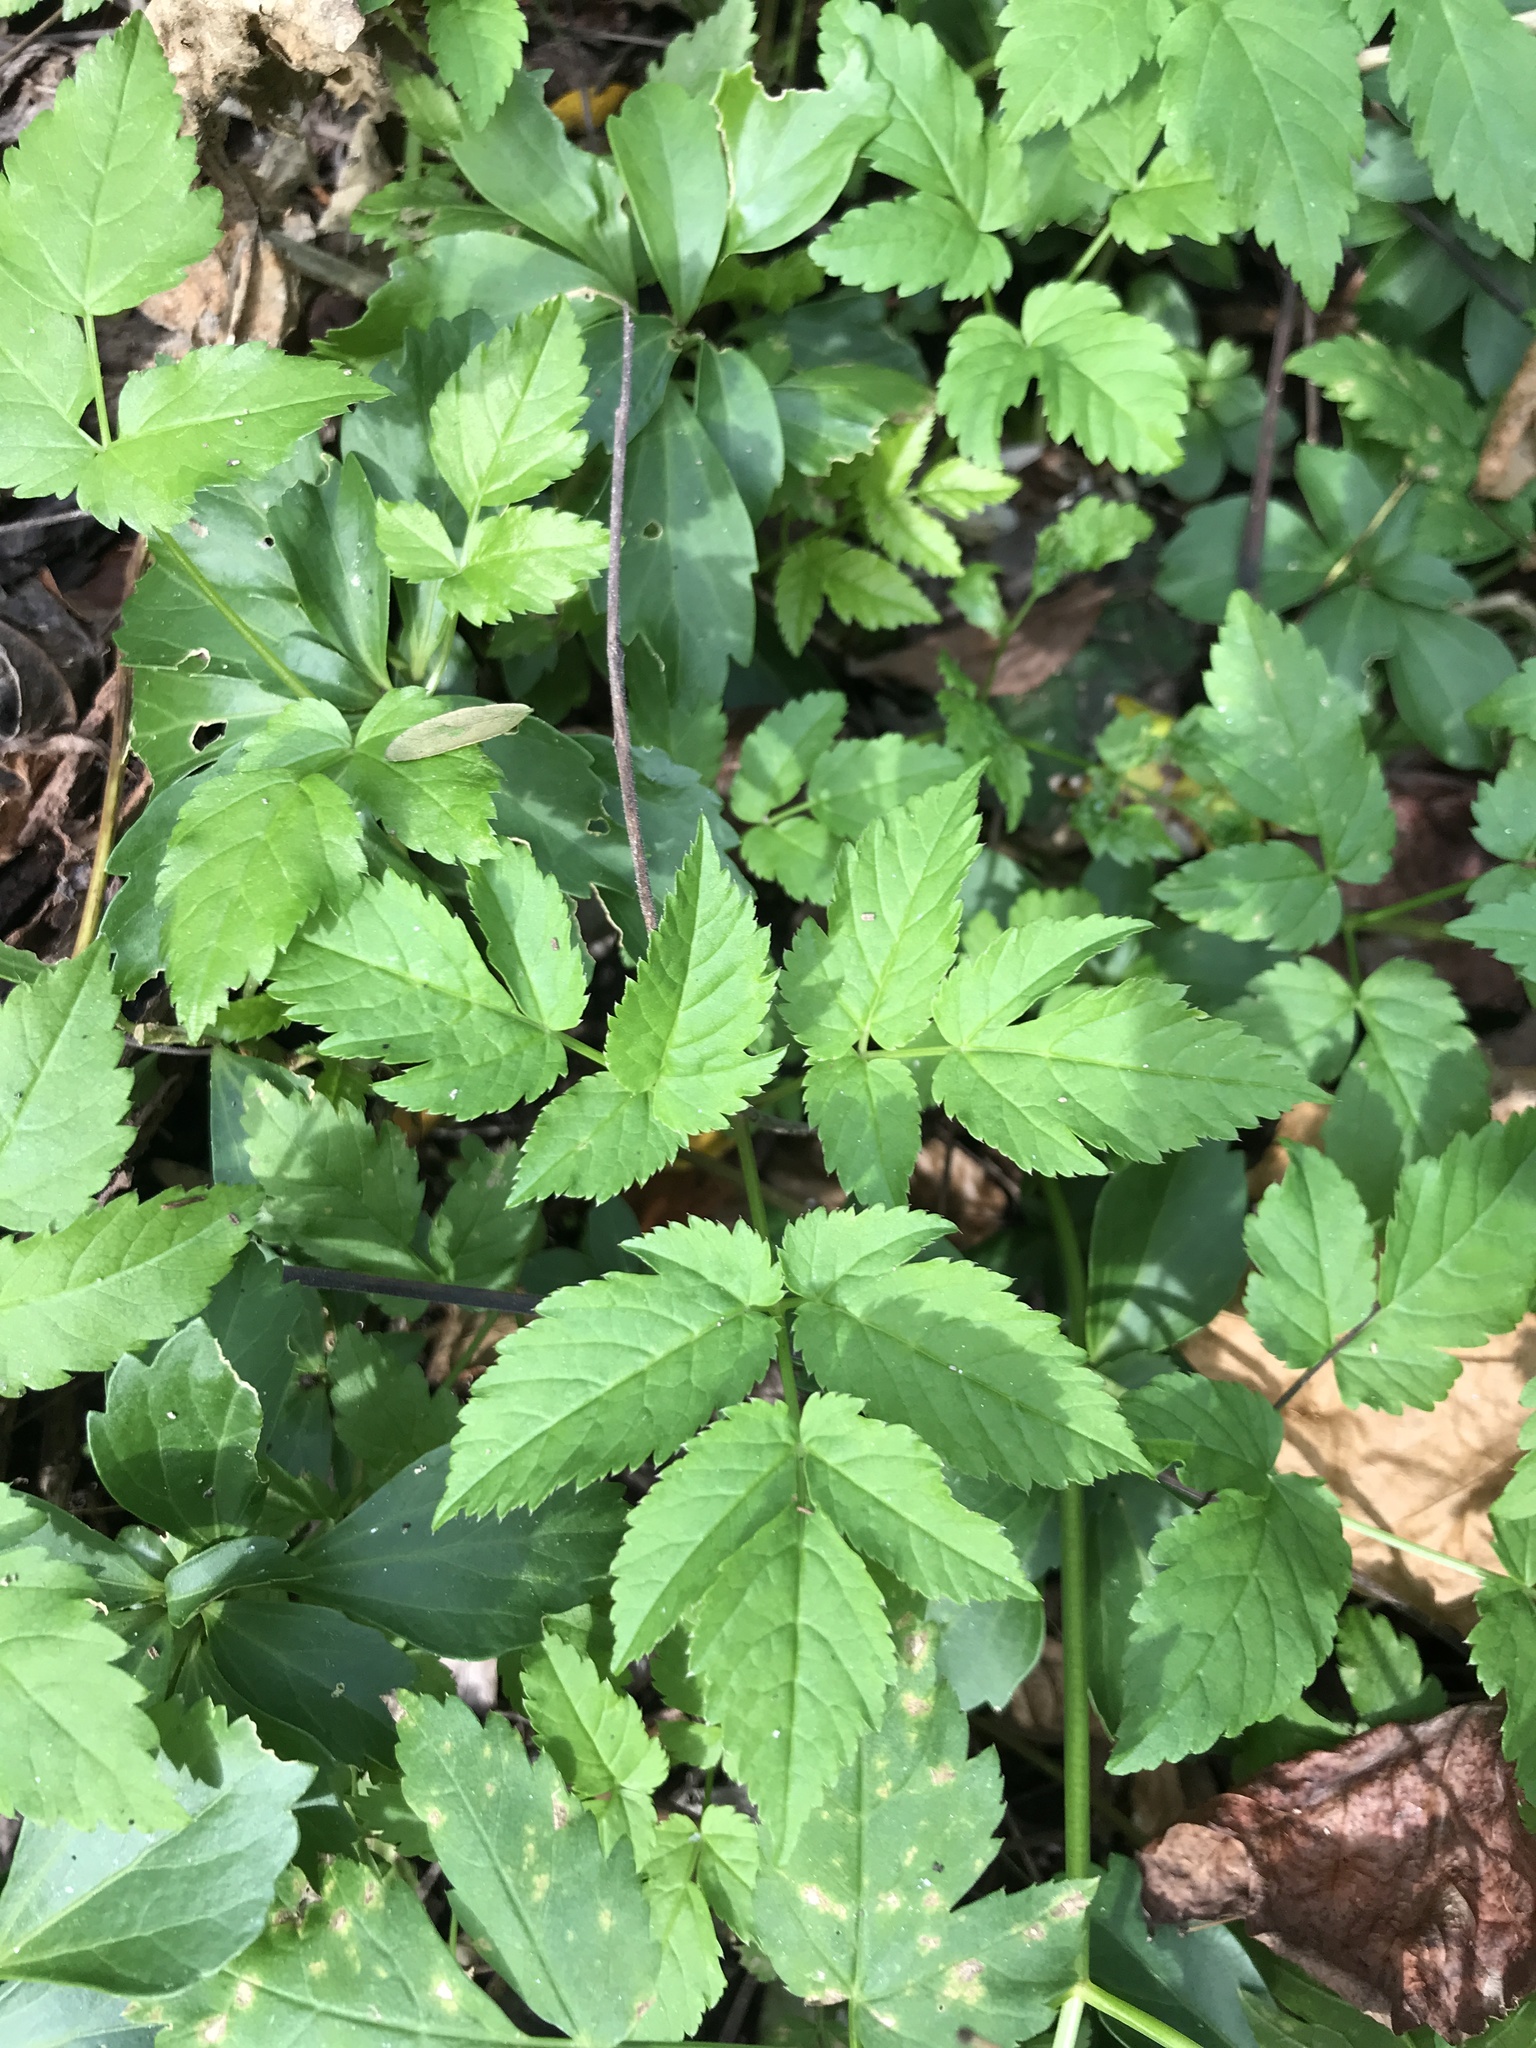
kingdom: Plantae
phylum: Tracheophyta
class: Magnoliopsida
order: Apiales
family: Apiaceae
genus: Aegopodium
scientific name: Aegopodium podagraria
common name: Ground-elder
